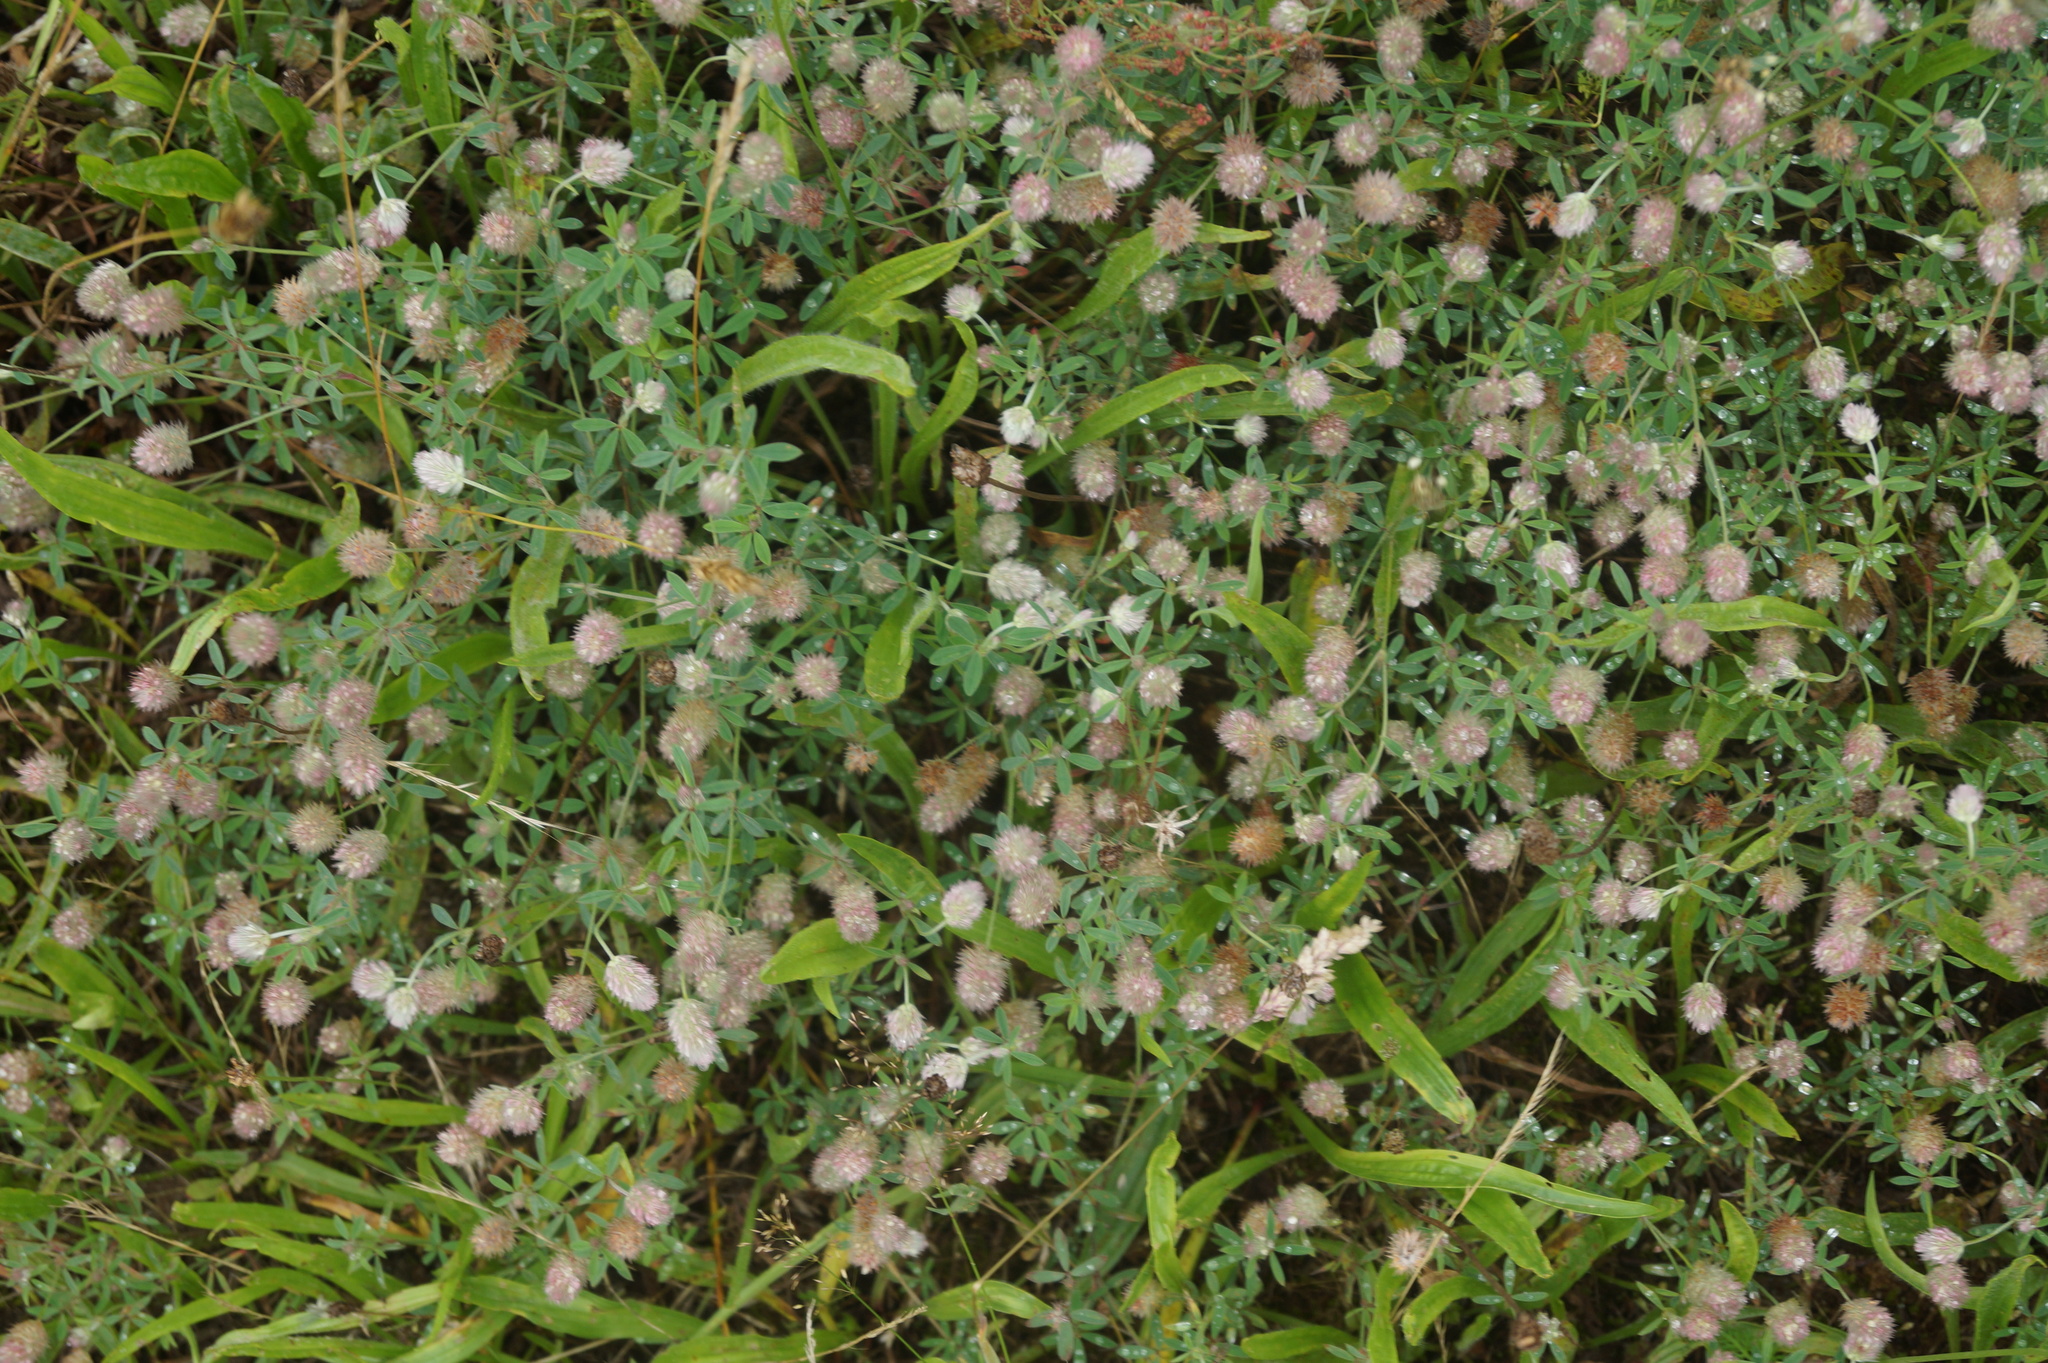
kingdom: Plantae
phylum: Tracheophyta
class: Magnoliopsida
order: Fabales
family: Fabaceae
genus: Trifolium
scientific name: Trifolium arvense
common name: Hare's-foot clover
